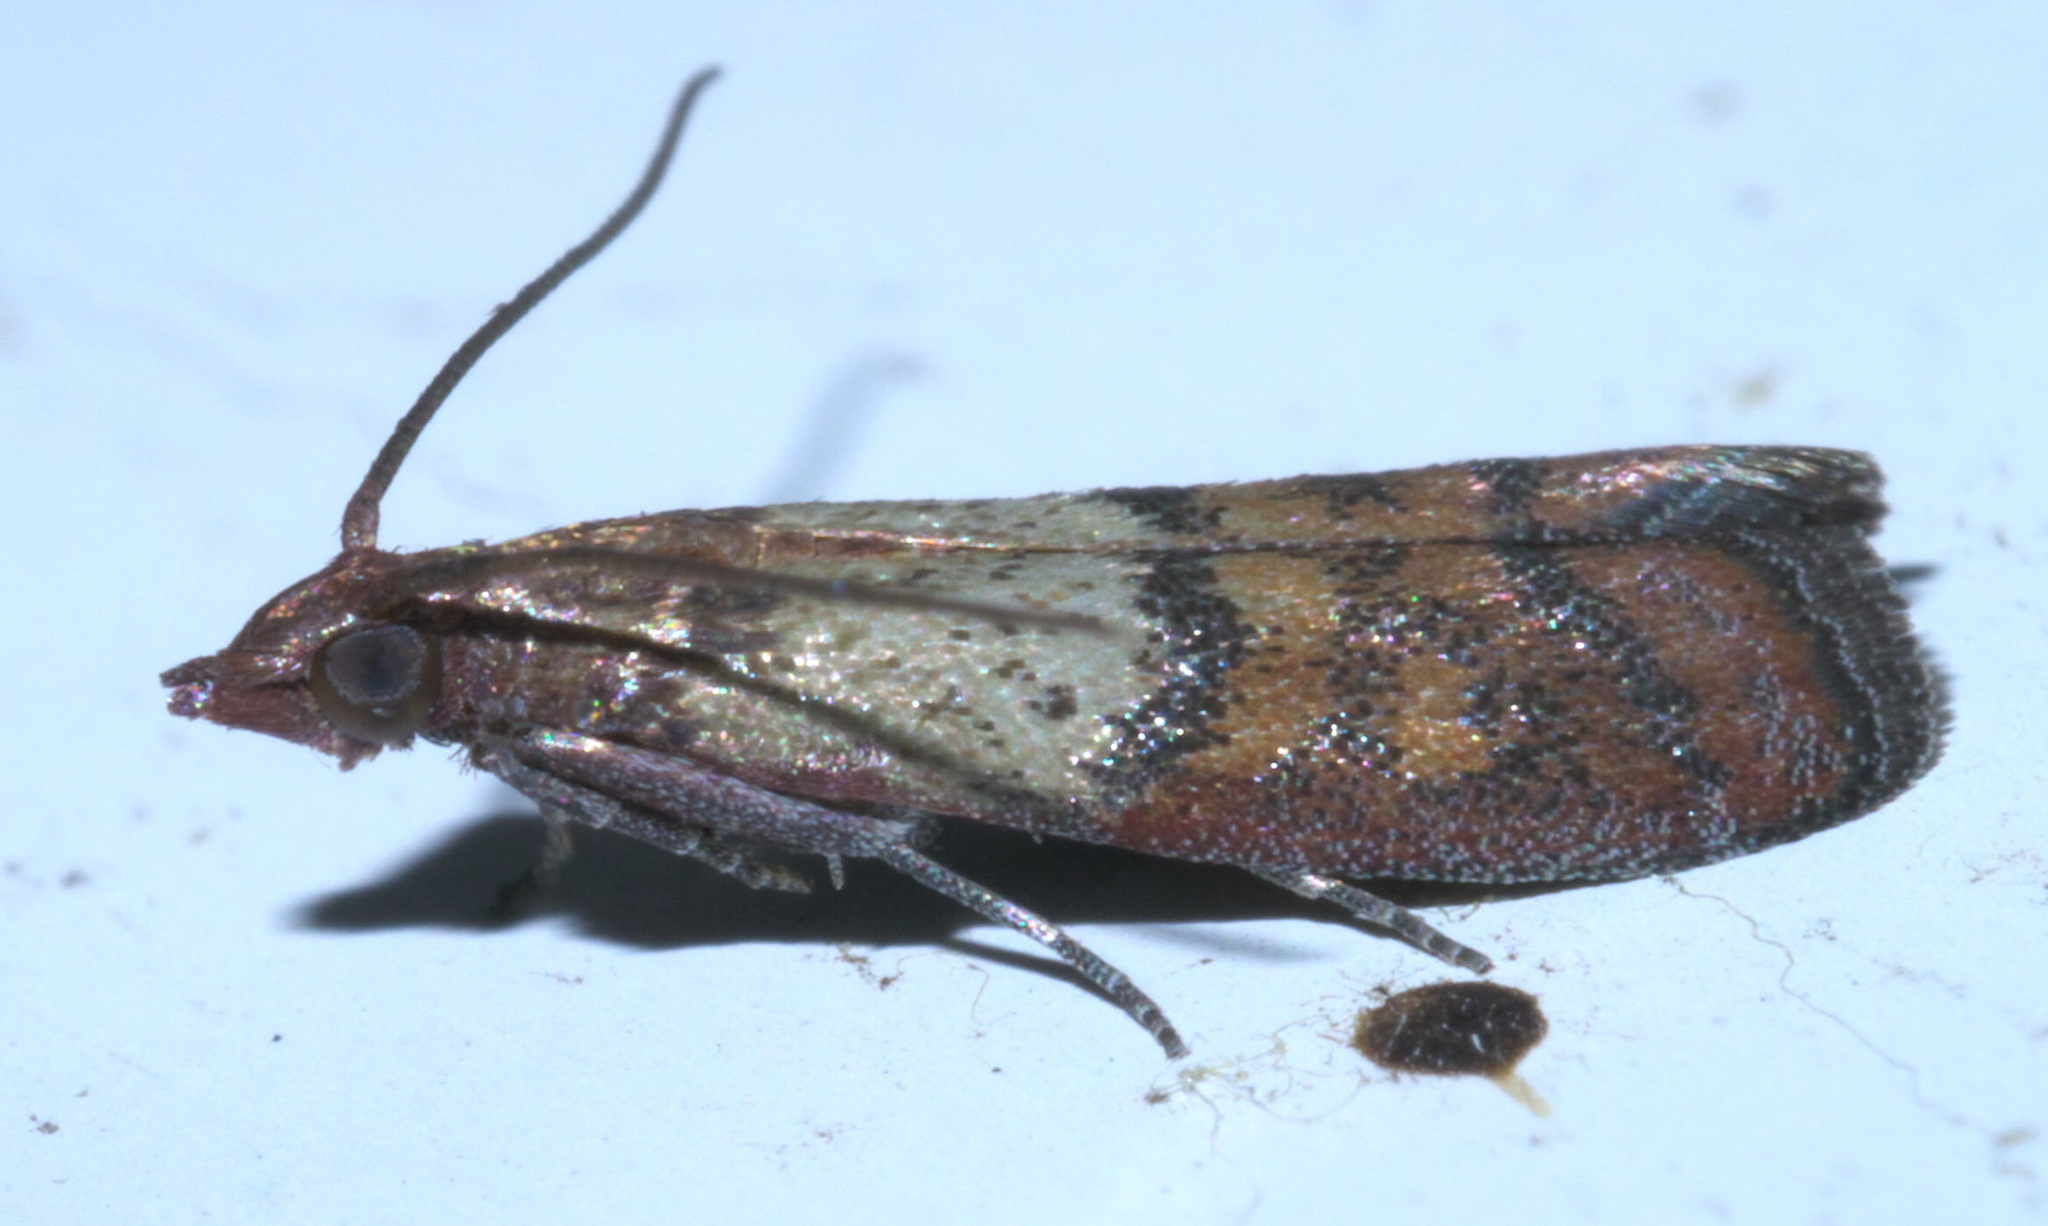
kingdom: Animalia
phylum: Arthropoda
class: Insecta
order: Lepidoptera
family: Pyralidae
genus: Plodia
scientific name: Plodia interpunctella
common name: Indian meal moth
